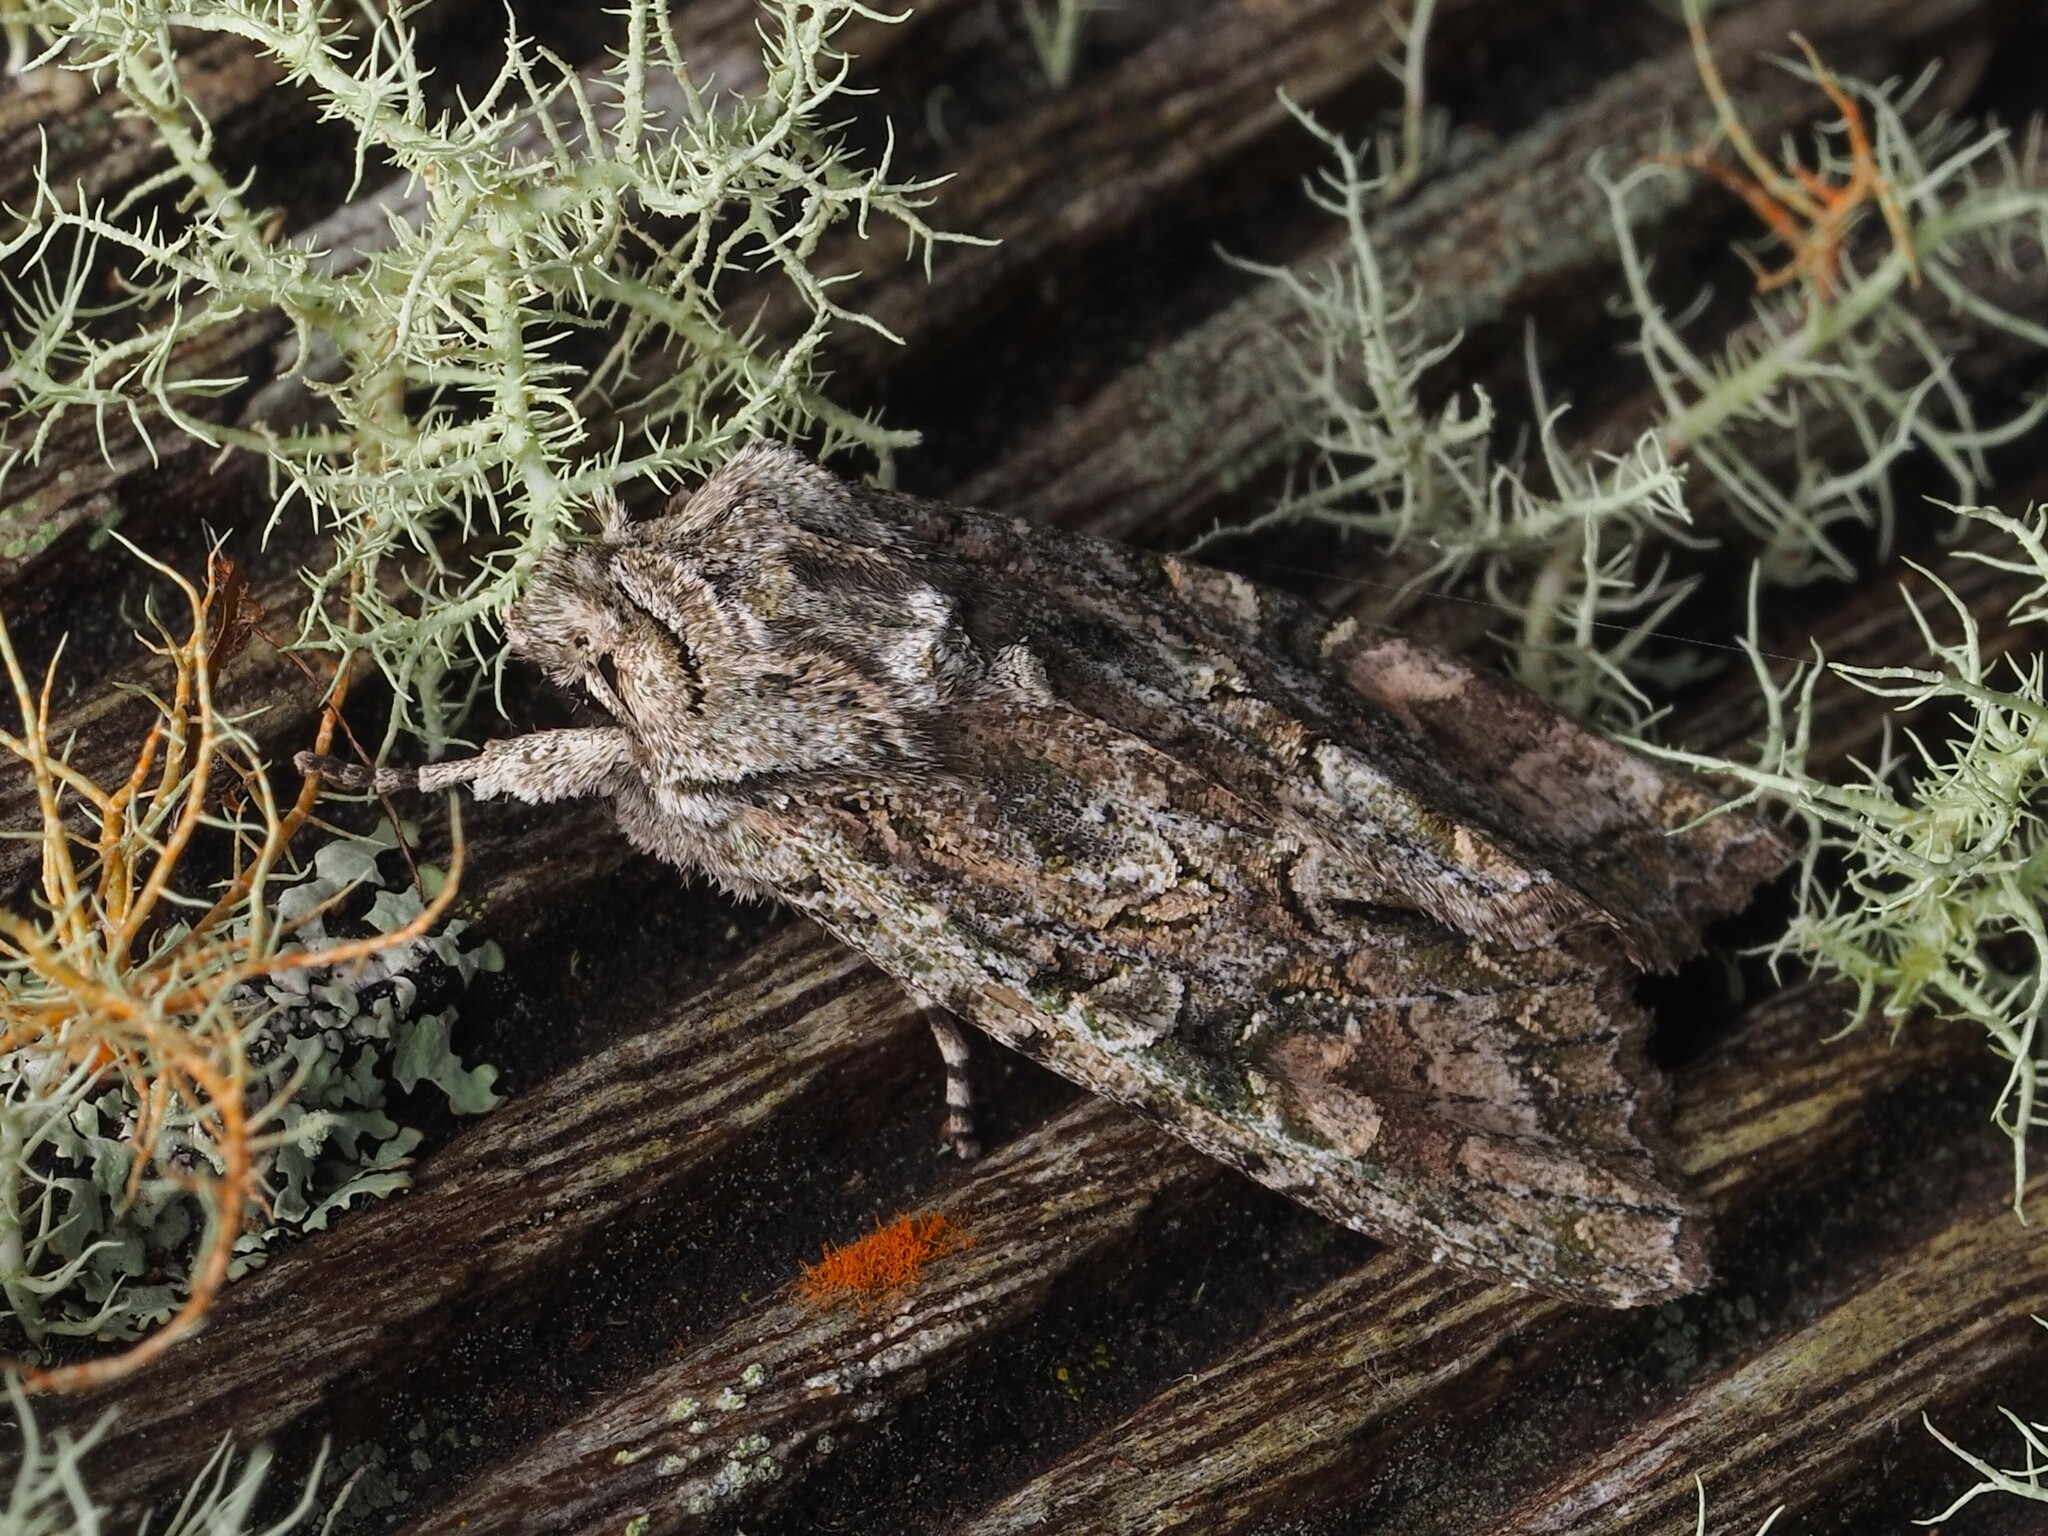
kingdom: Animalia
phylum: Arthropoda
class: Insecta
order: Lepidoptera
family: Noctuidae
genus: Ichneutica
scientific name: Ichneutica mutans
